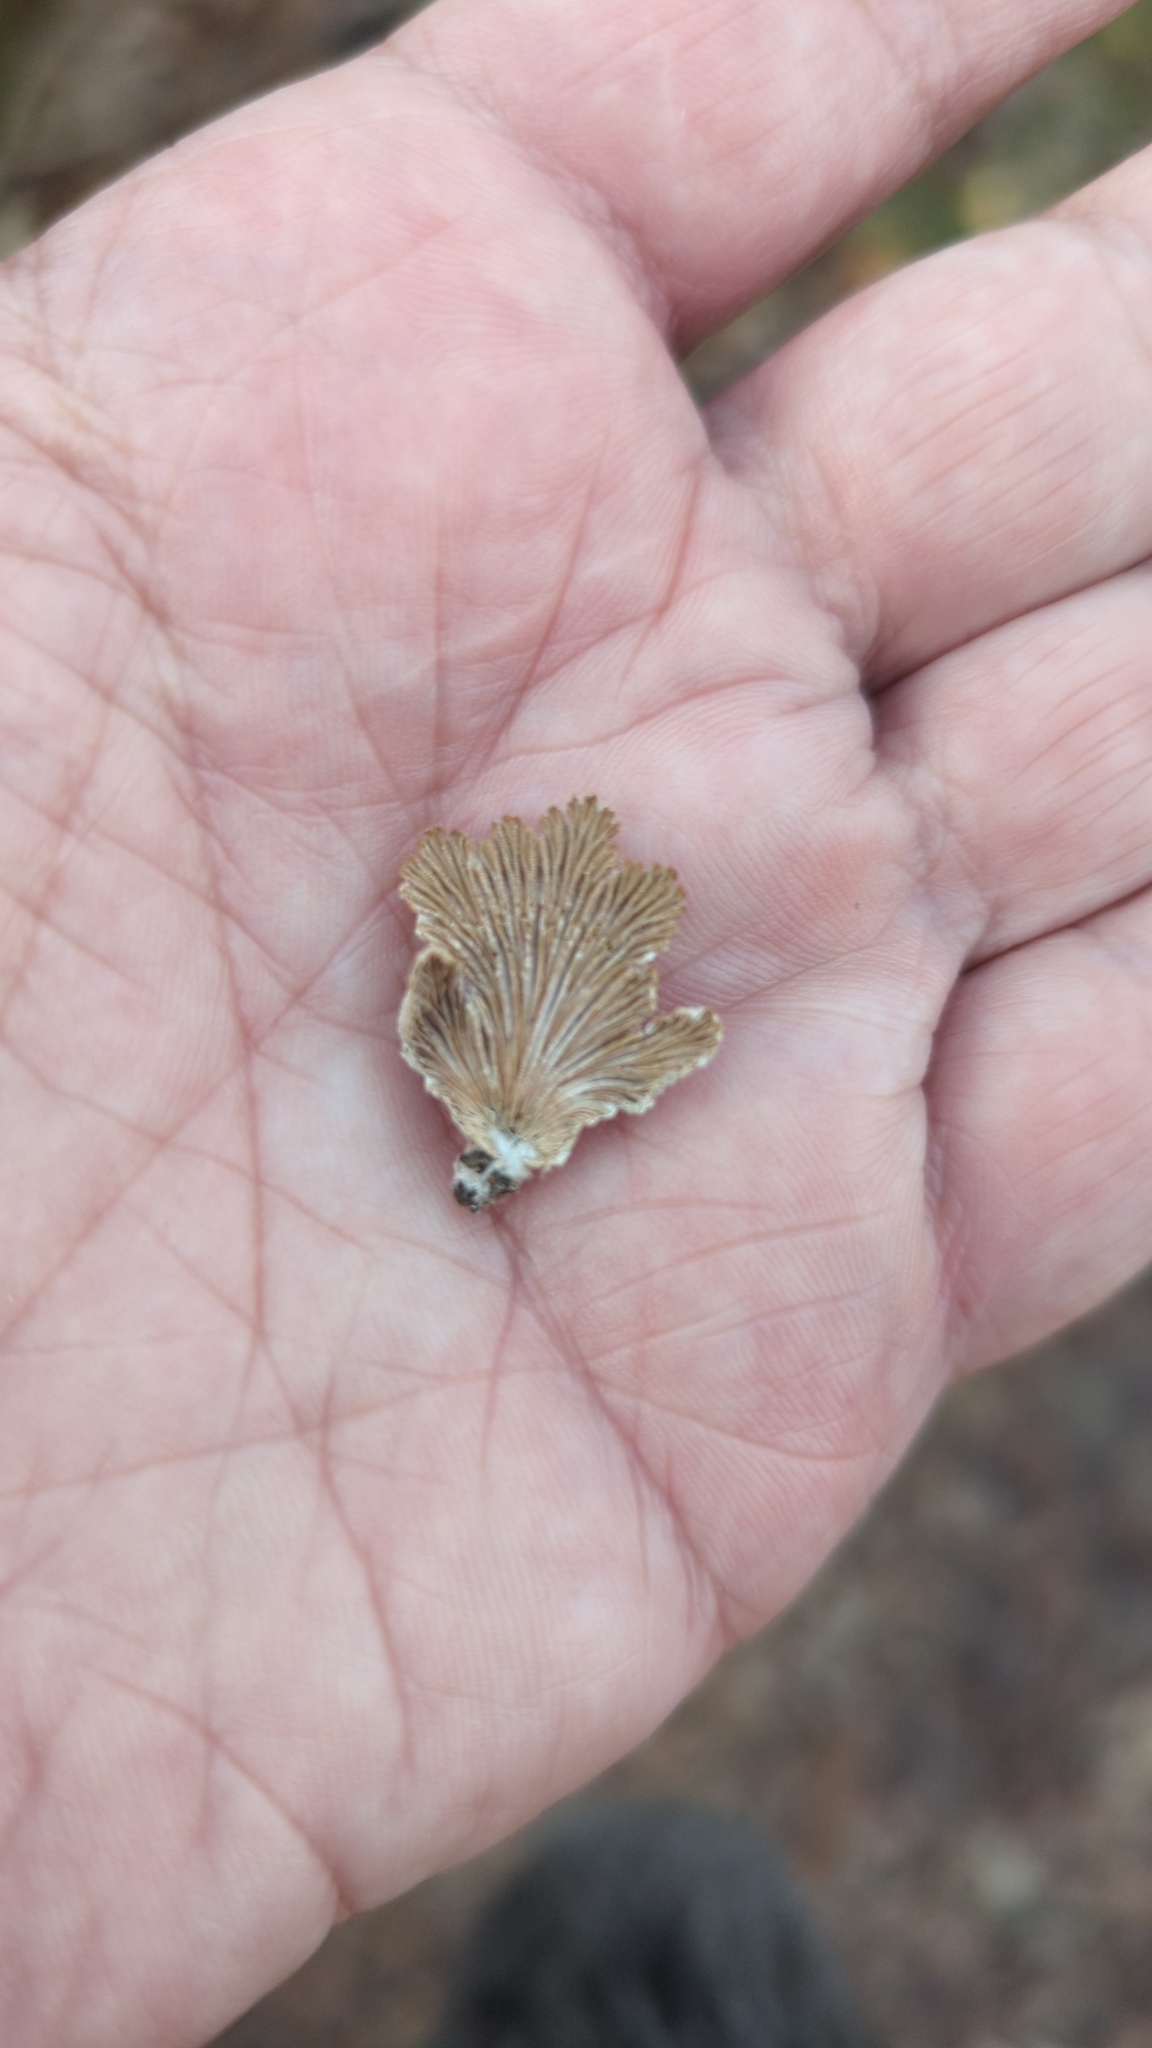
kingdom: Fungi
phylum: Basidiomycota
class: Agaricomycetes
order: Agaricales
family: Schizophyllaceae
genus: Schizophyllum
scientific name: Schizophyllum commune
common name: Common porecrust
